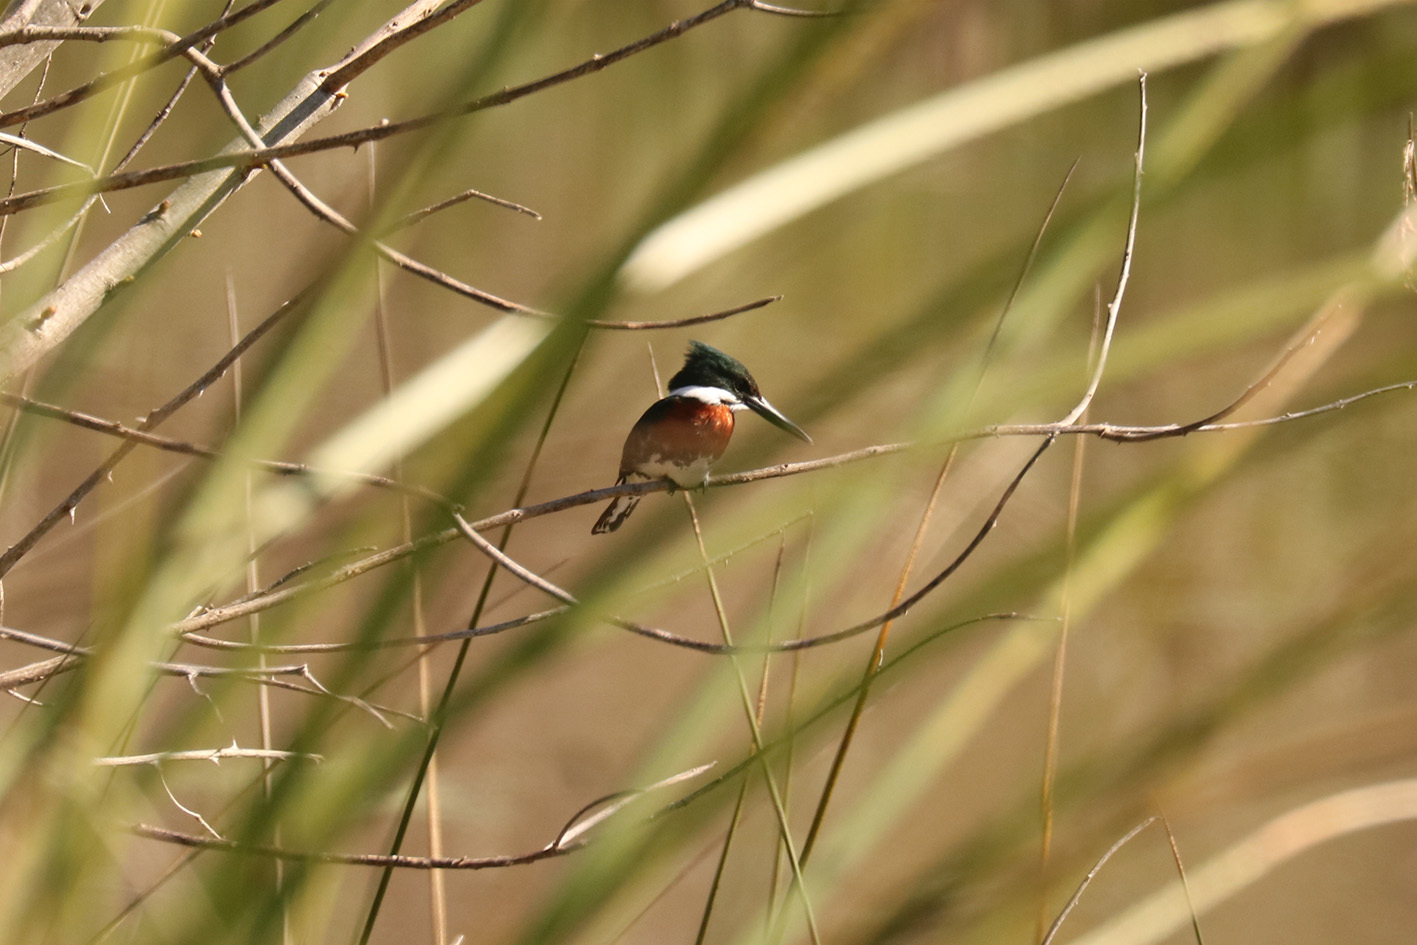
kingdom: Animalia
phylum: Chordata
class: Aves
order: Coraciiformes
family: Alcedinidae
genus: Chloroceryle
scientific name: Chloroceryle americana
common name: Green kingfisher
